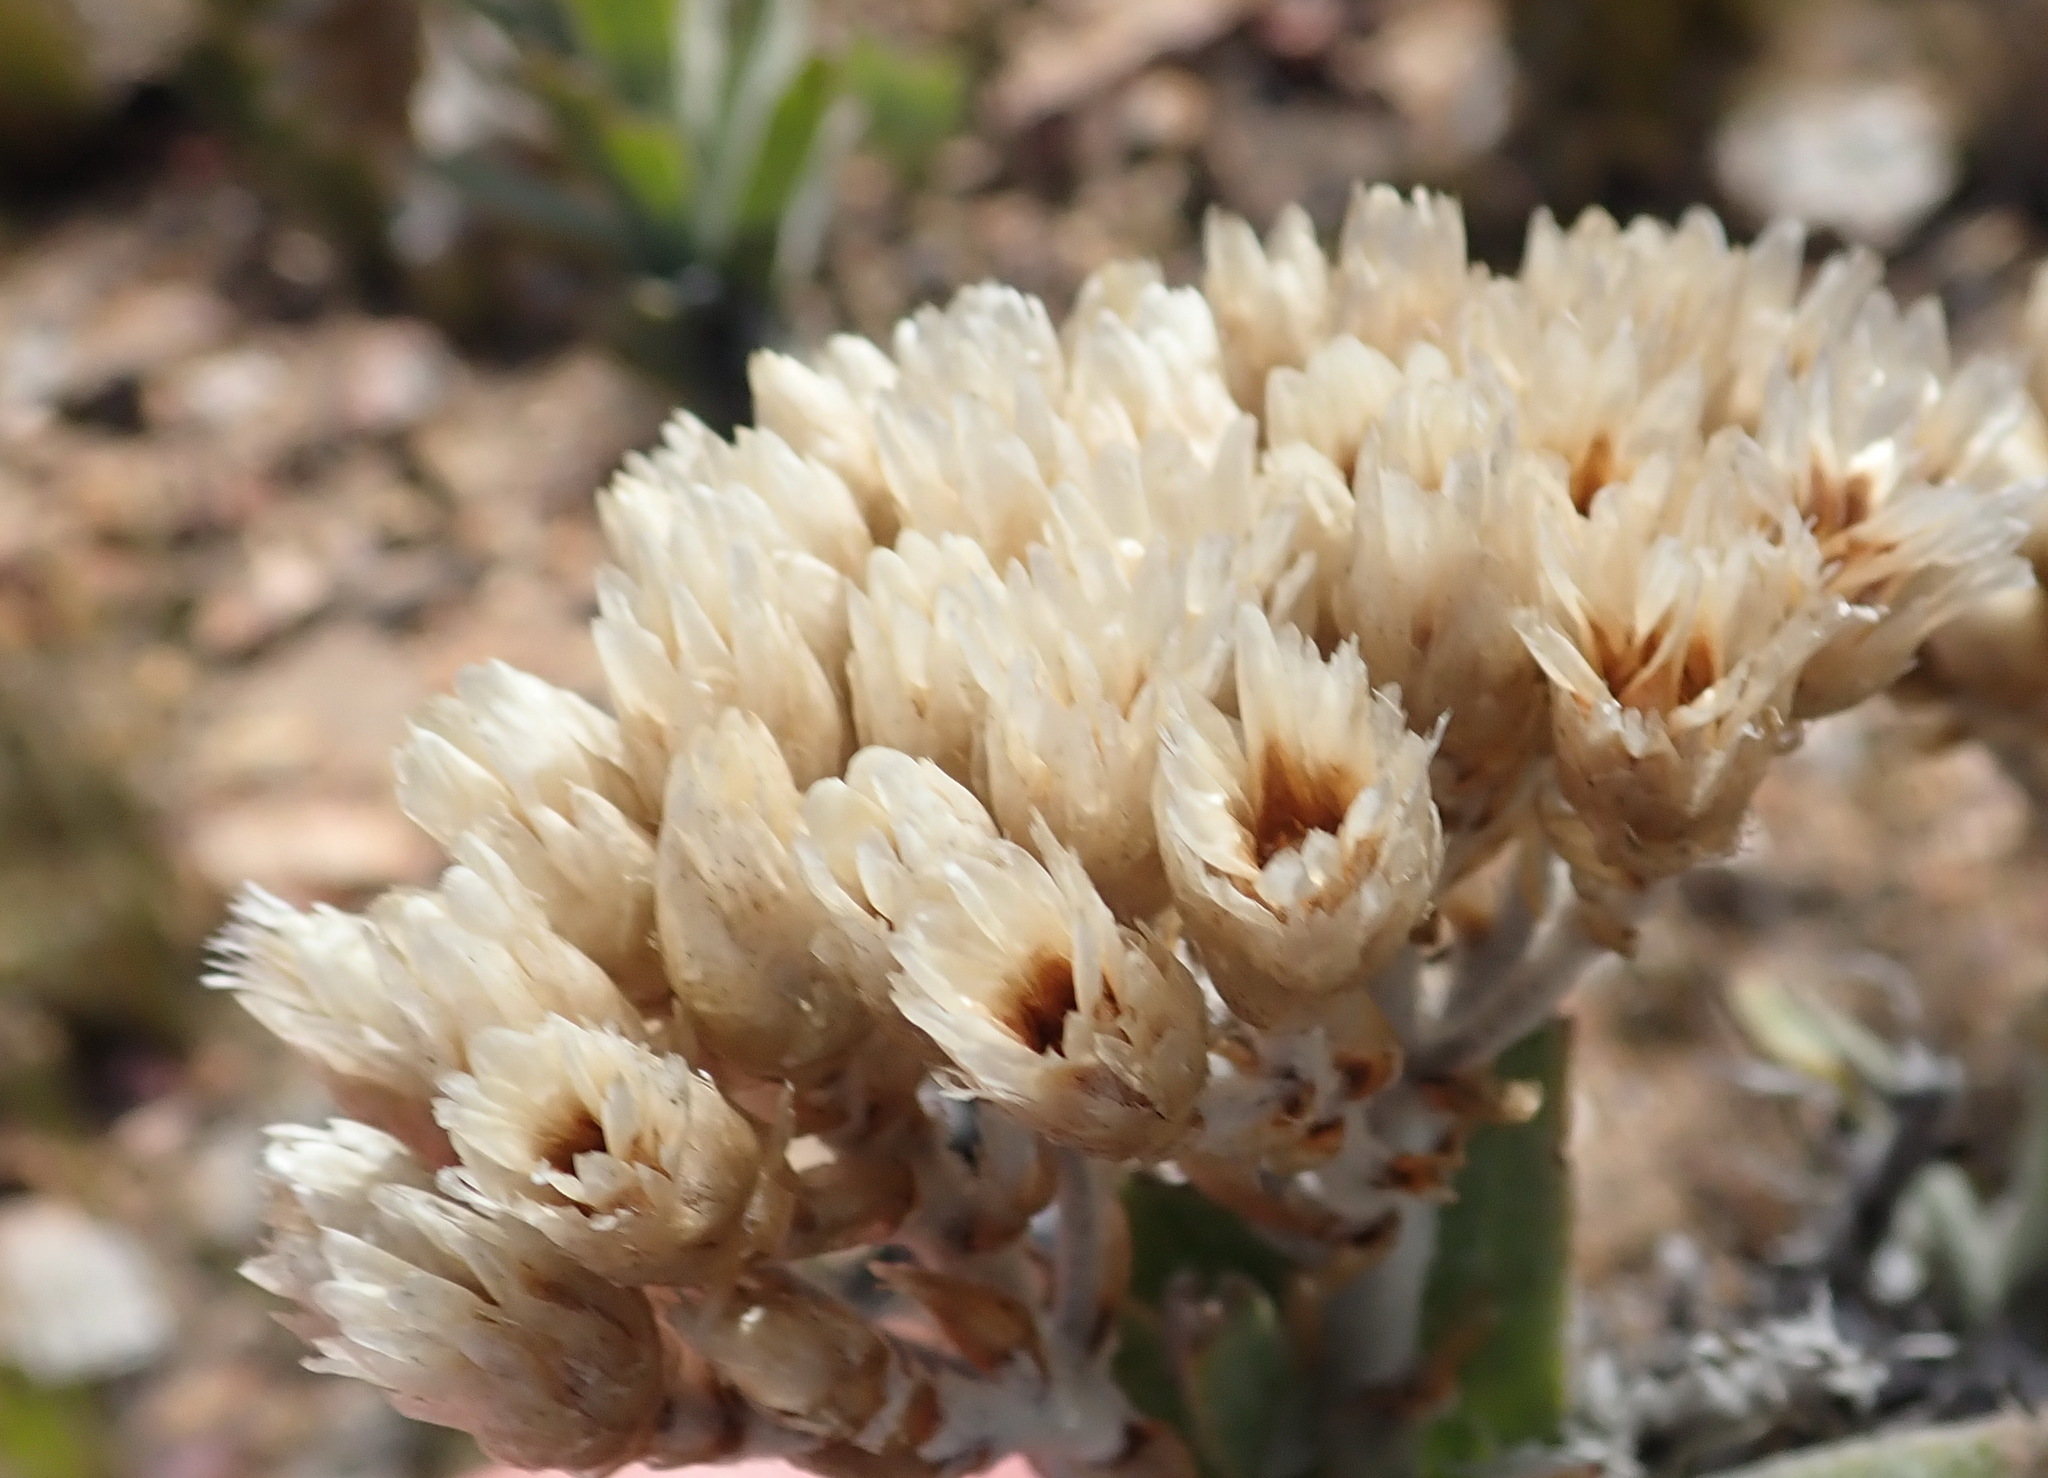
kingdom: Plantae
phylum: Tracheophyta
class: Magnoliopsida
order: Asterales
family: Asteraceae
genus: Syncarpha
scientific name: Syncarpha milleflora
